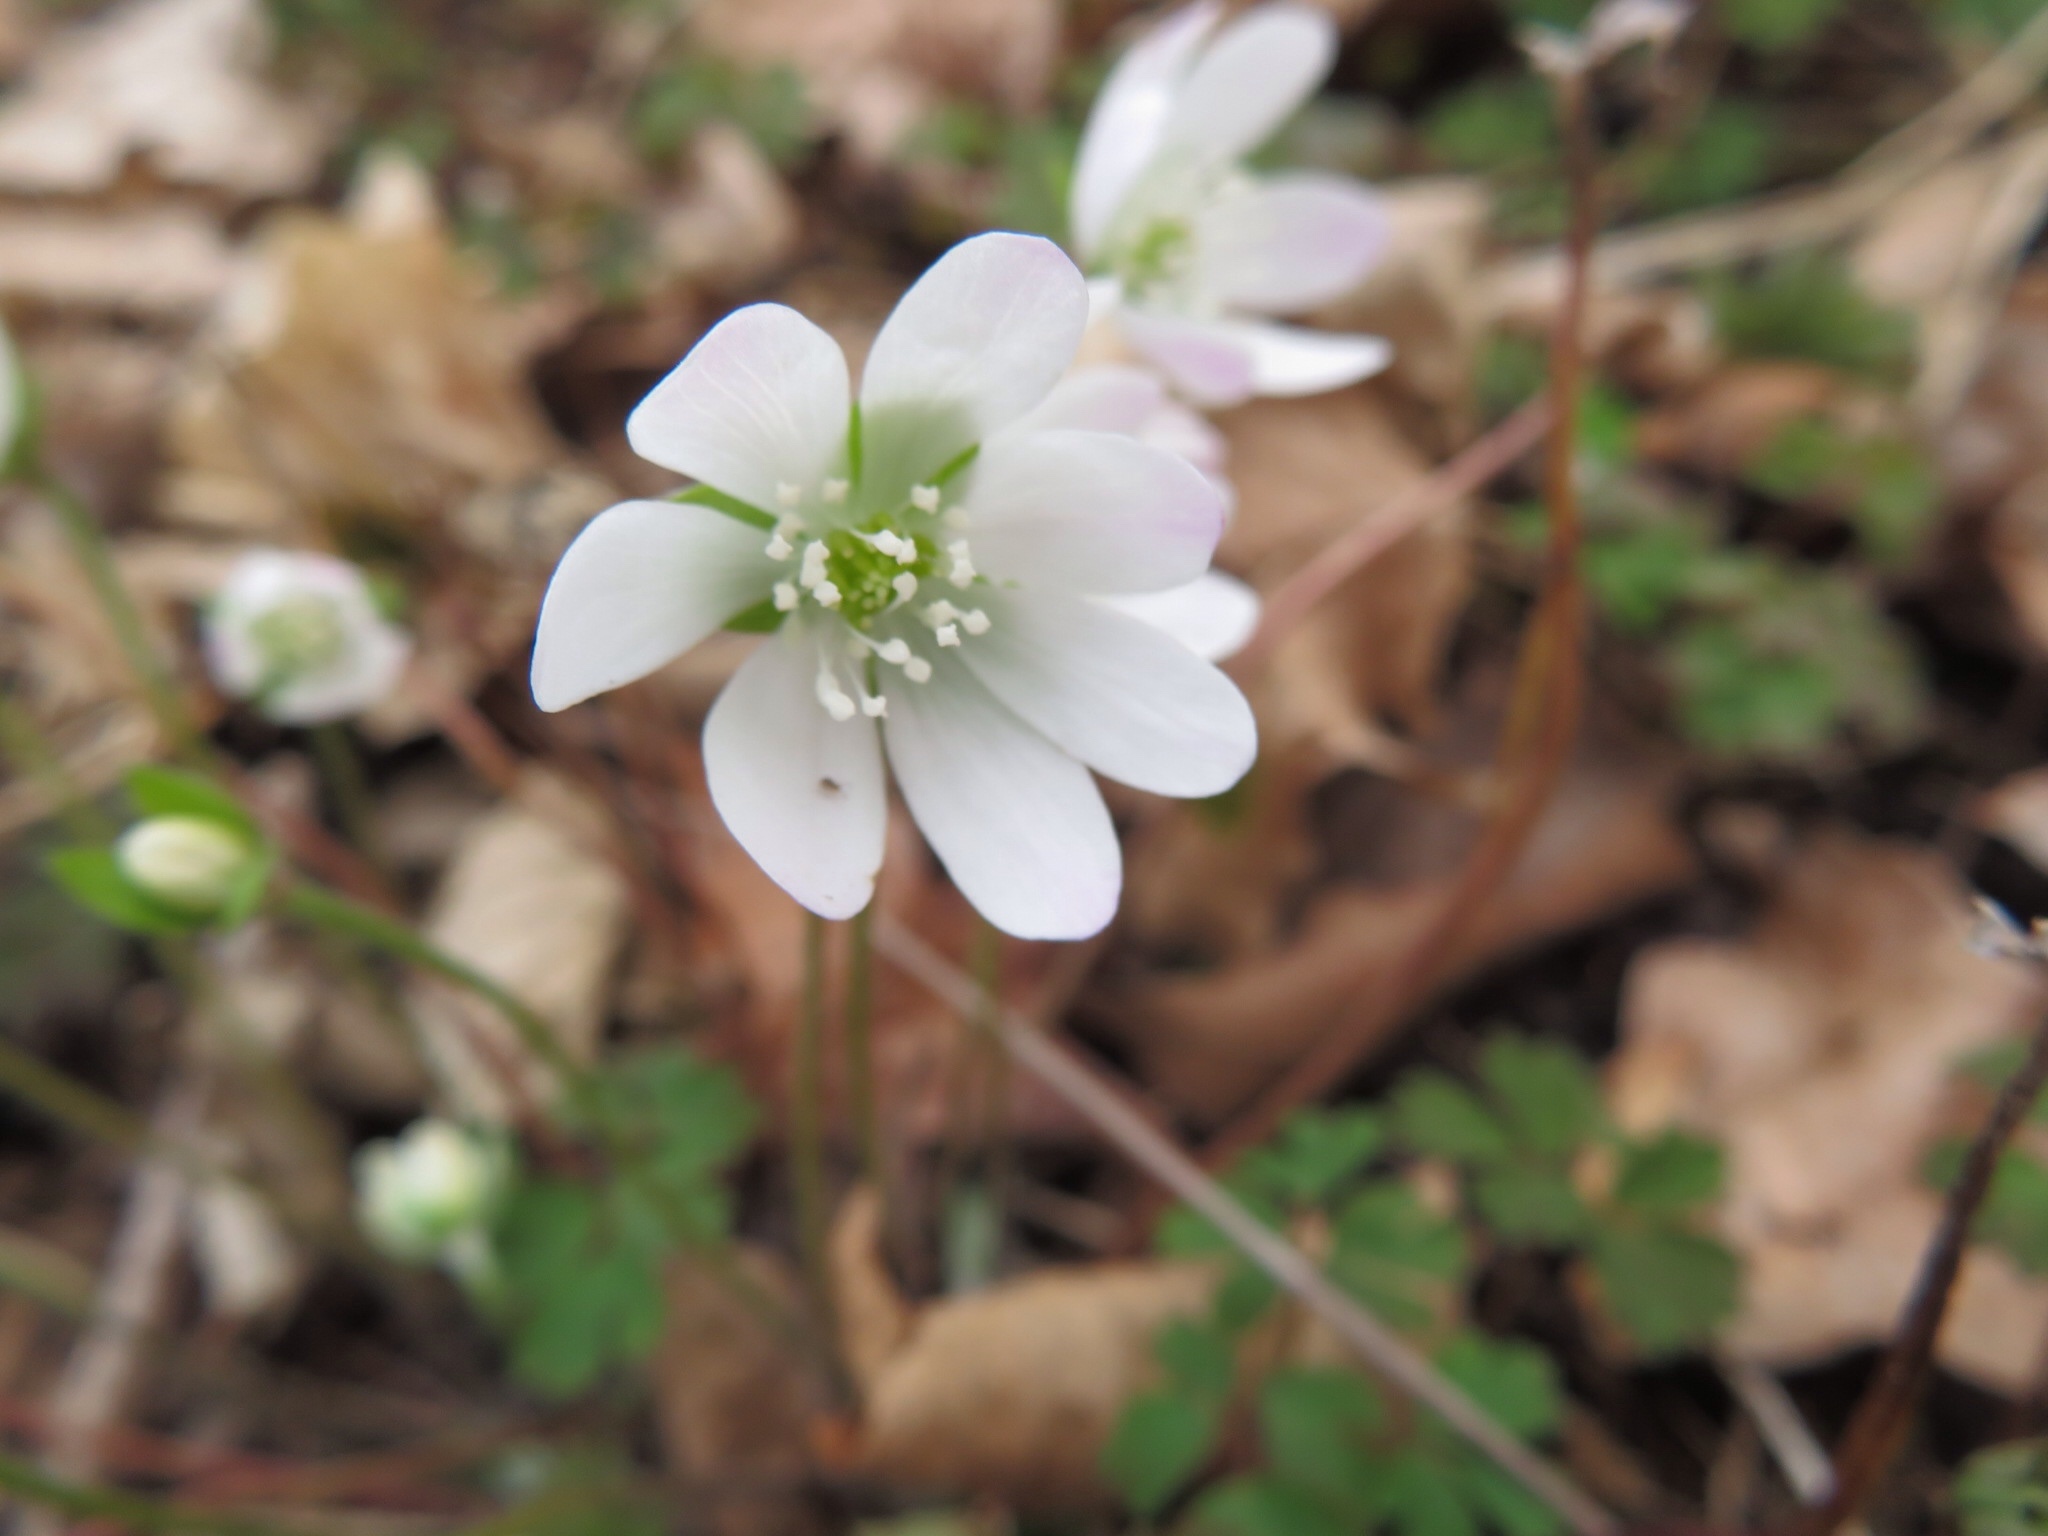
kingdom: Plantae
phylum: Tracheophyta
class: Magnoliopsida
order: Ranunculales
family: Ranunculaceae
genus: Hepatica
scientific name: Hepatica acutiloba
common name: Sharp-lobed hepatica
